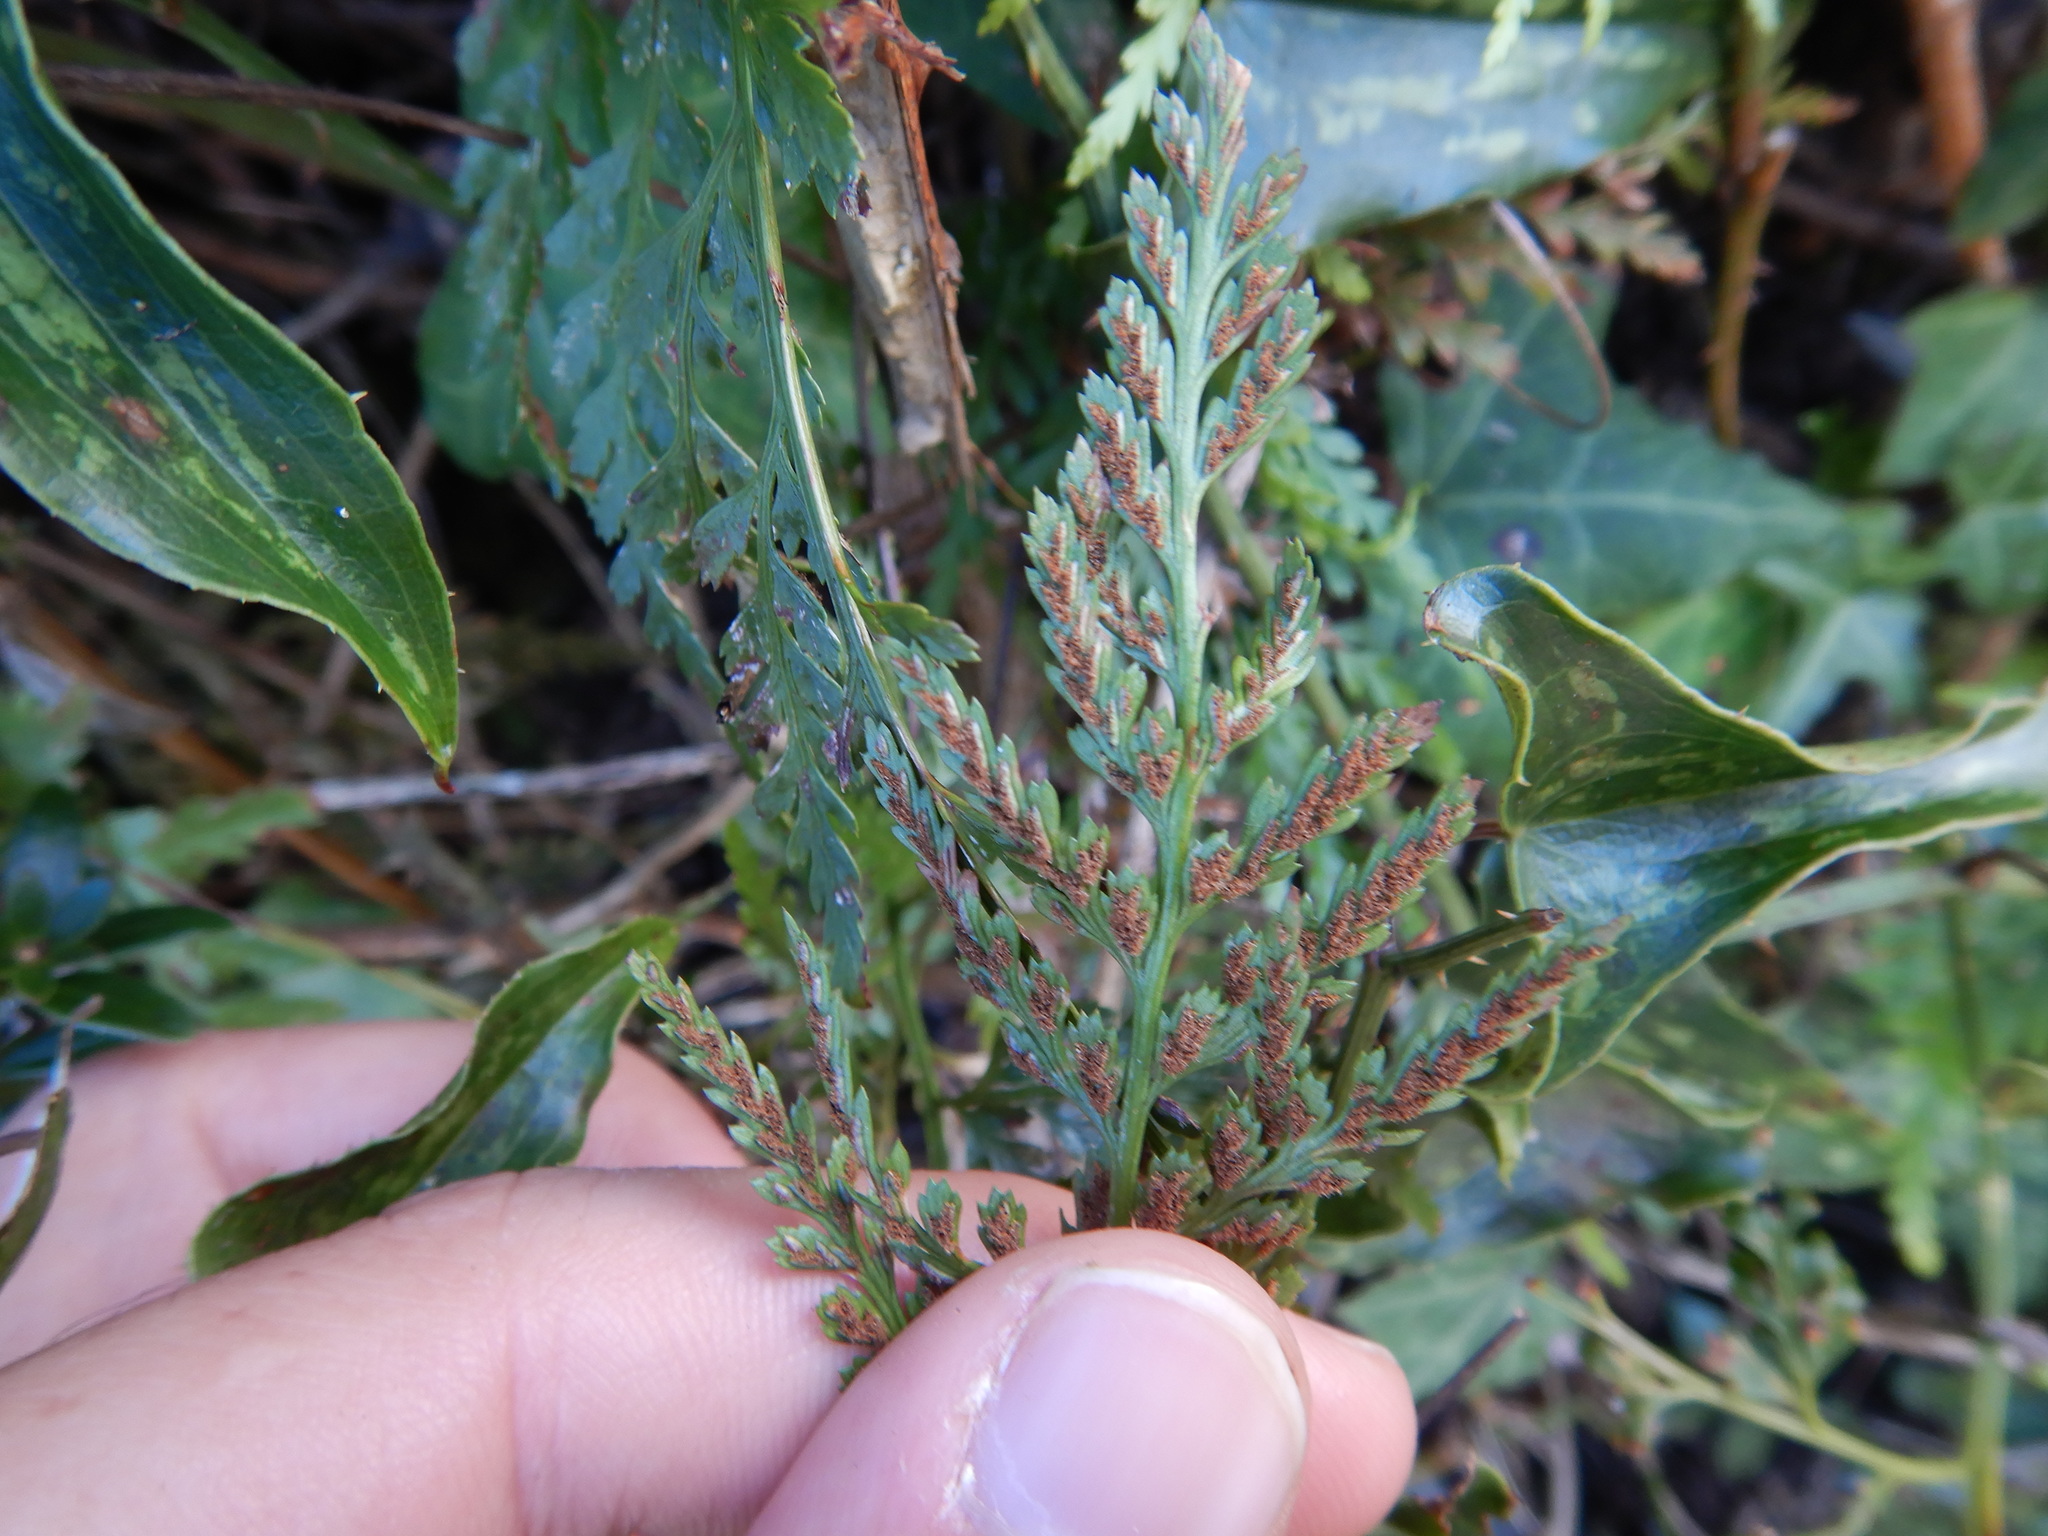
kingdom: Plantae
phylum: Tracheophyta
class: Polypodiopsida
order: Polypodiales
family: Aspleniaceae
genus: Asplenium
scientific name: Asplenium onopteris
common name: Irish spleenwort
